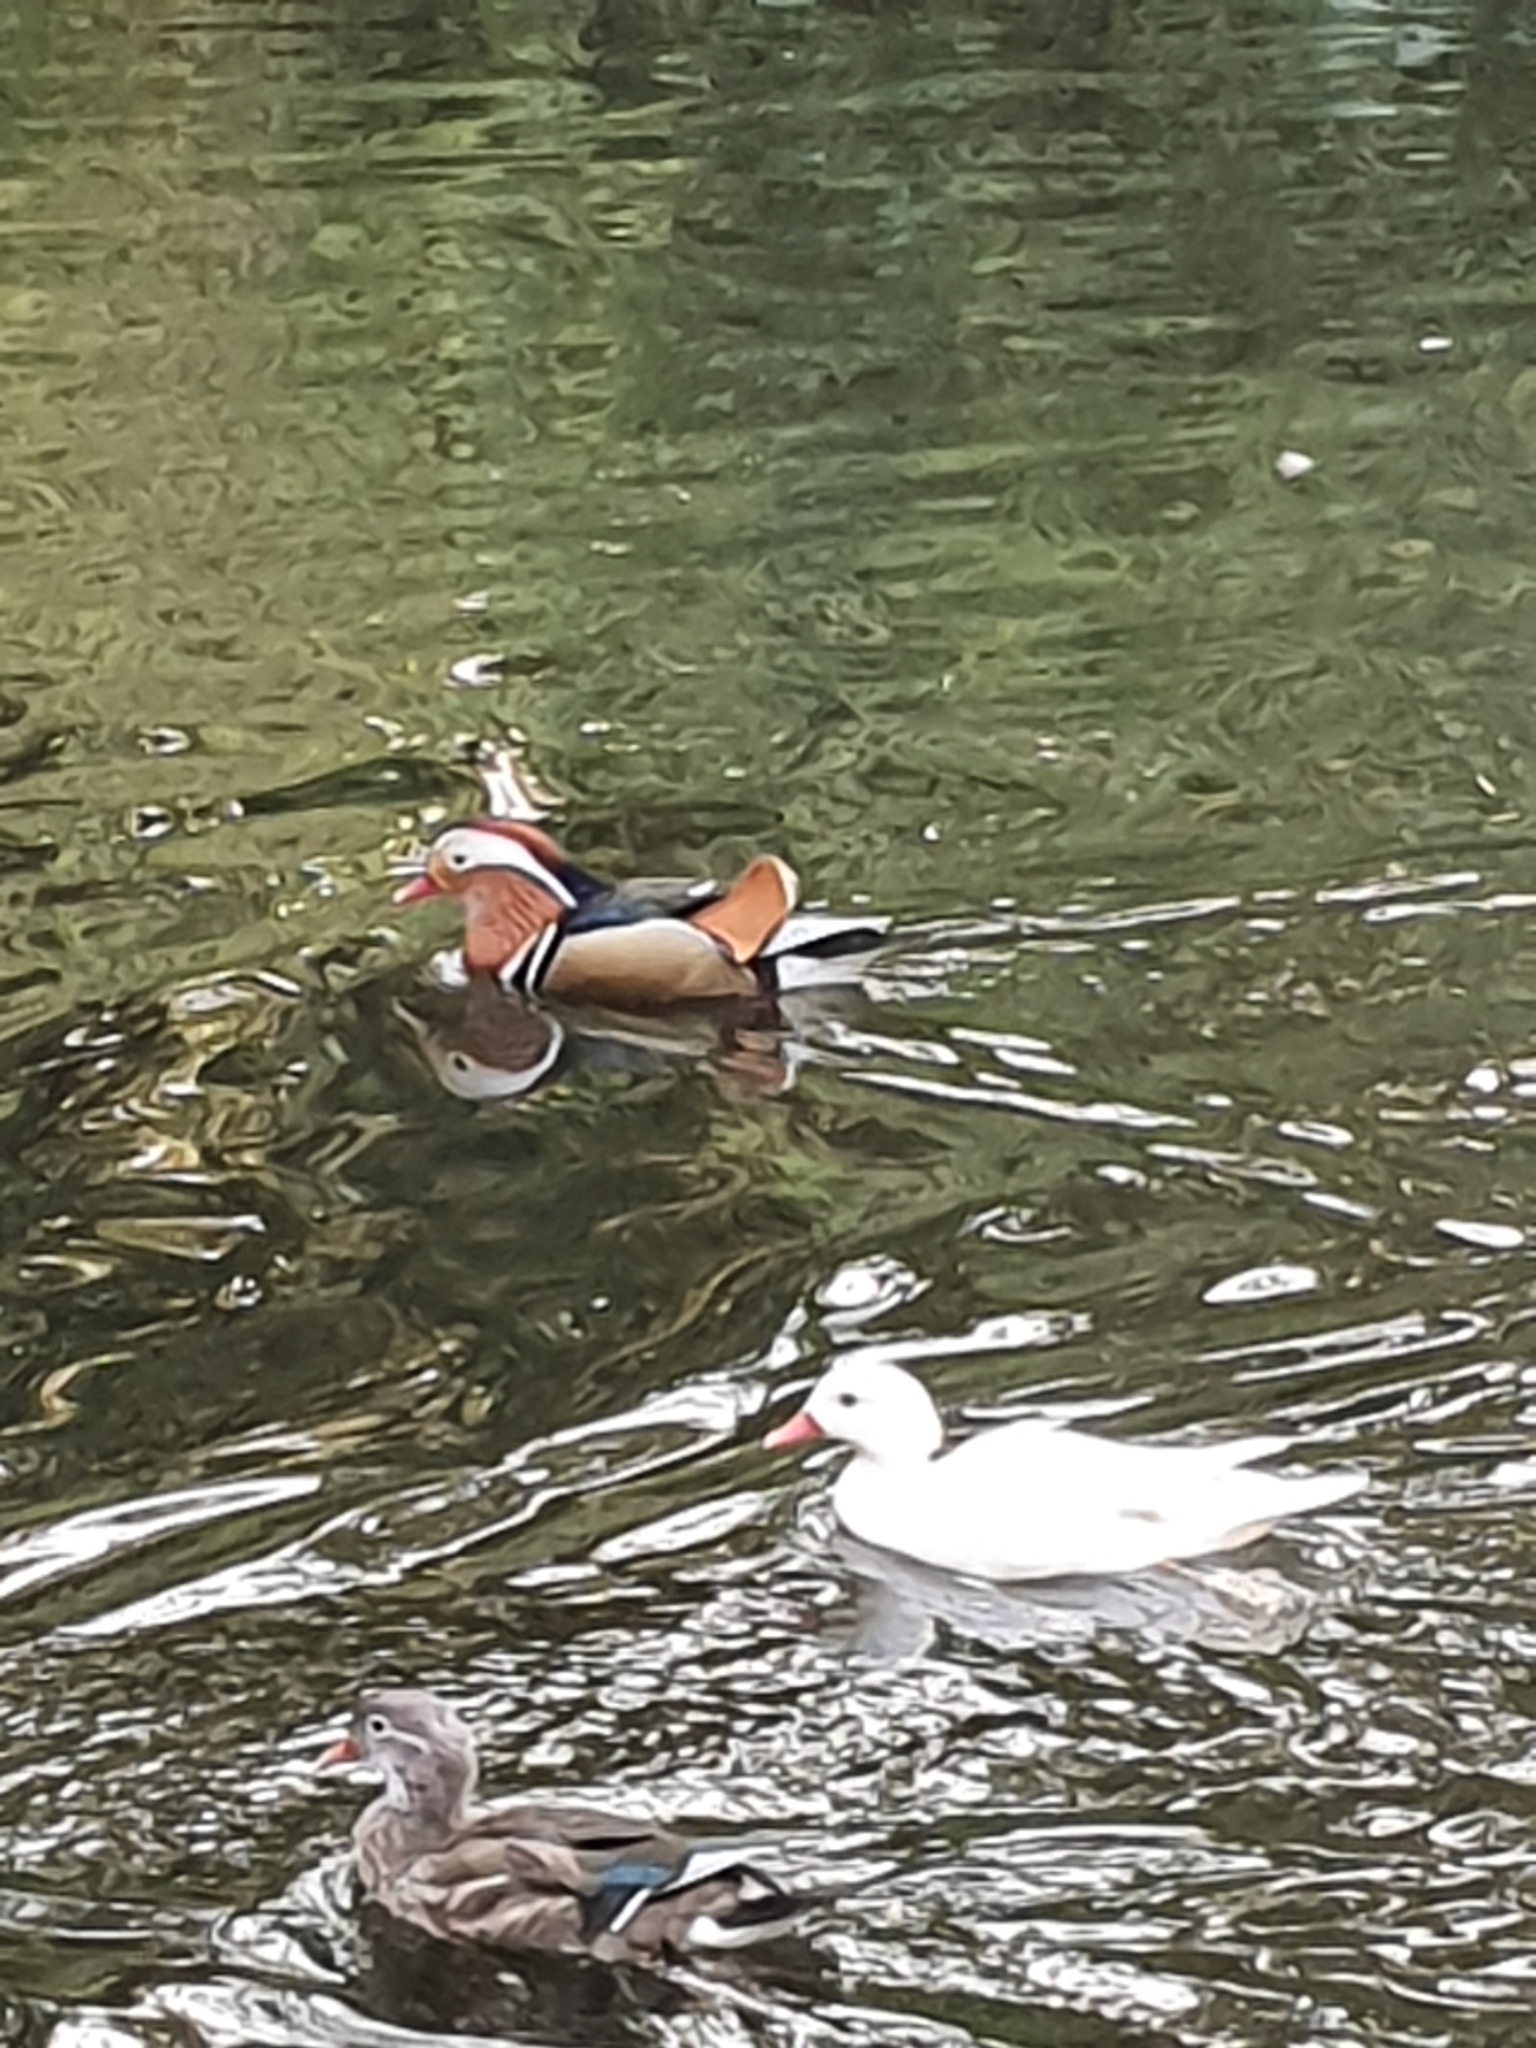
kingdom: Animalia
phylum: Chordata
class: Aves
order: Anseriformes
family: Anatidae
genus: Aix
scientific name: Aix galericulata
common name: Mandarin duck
